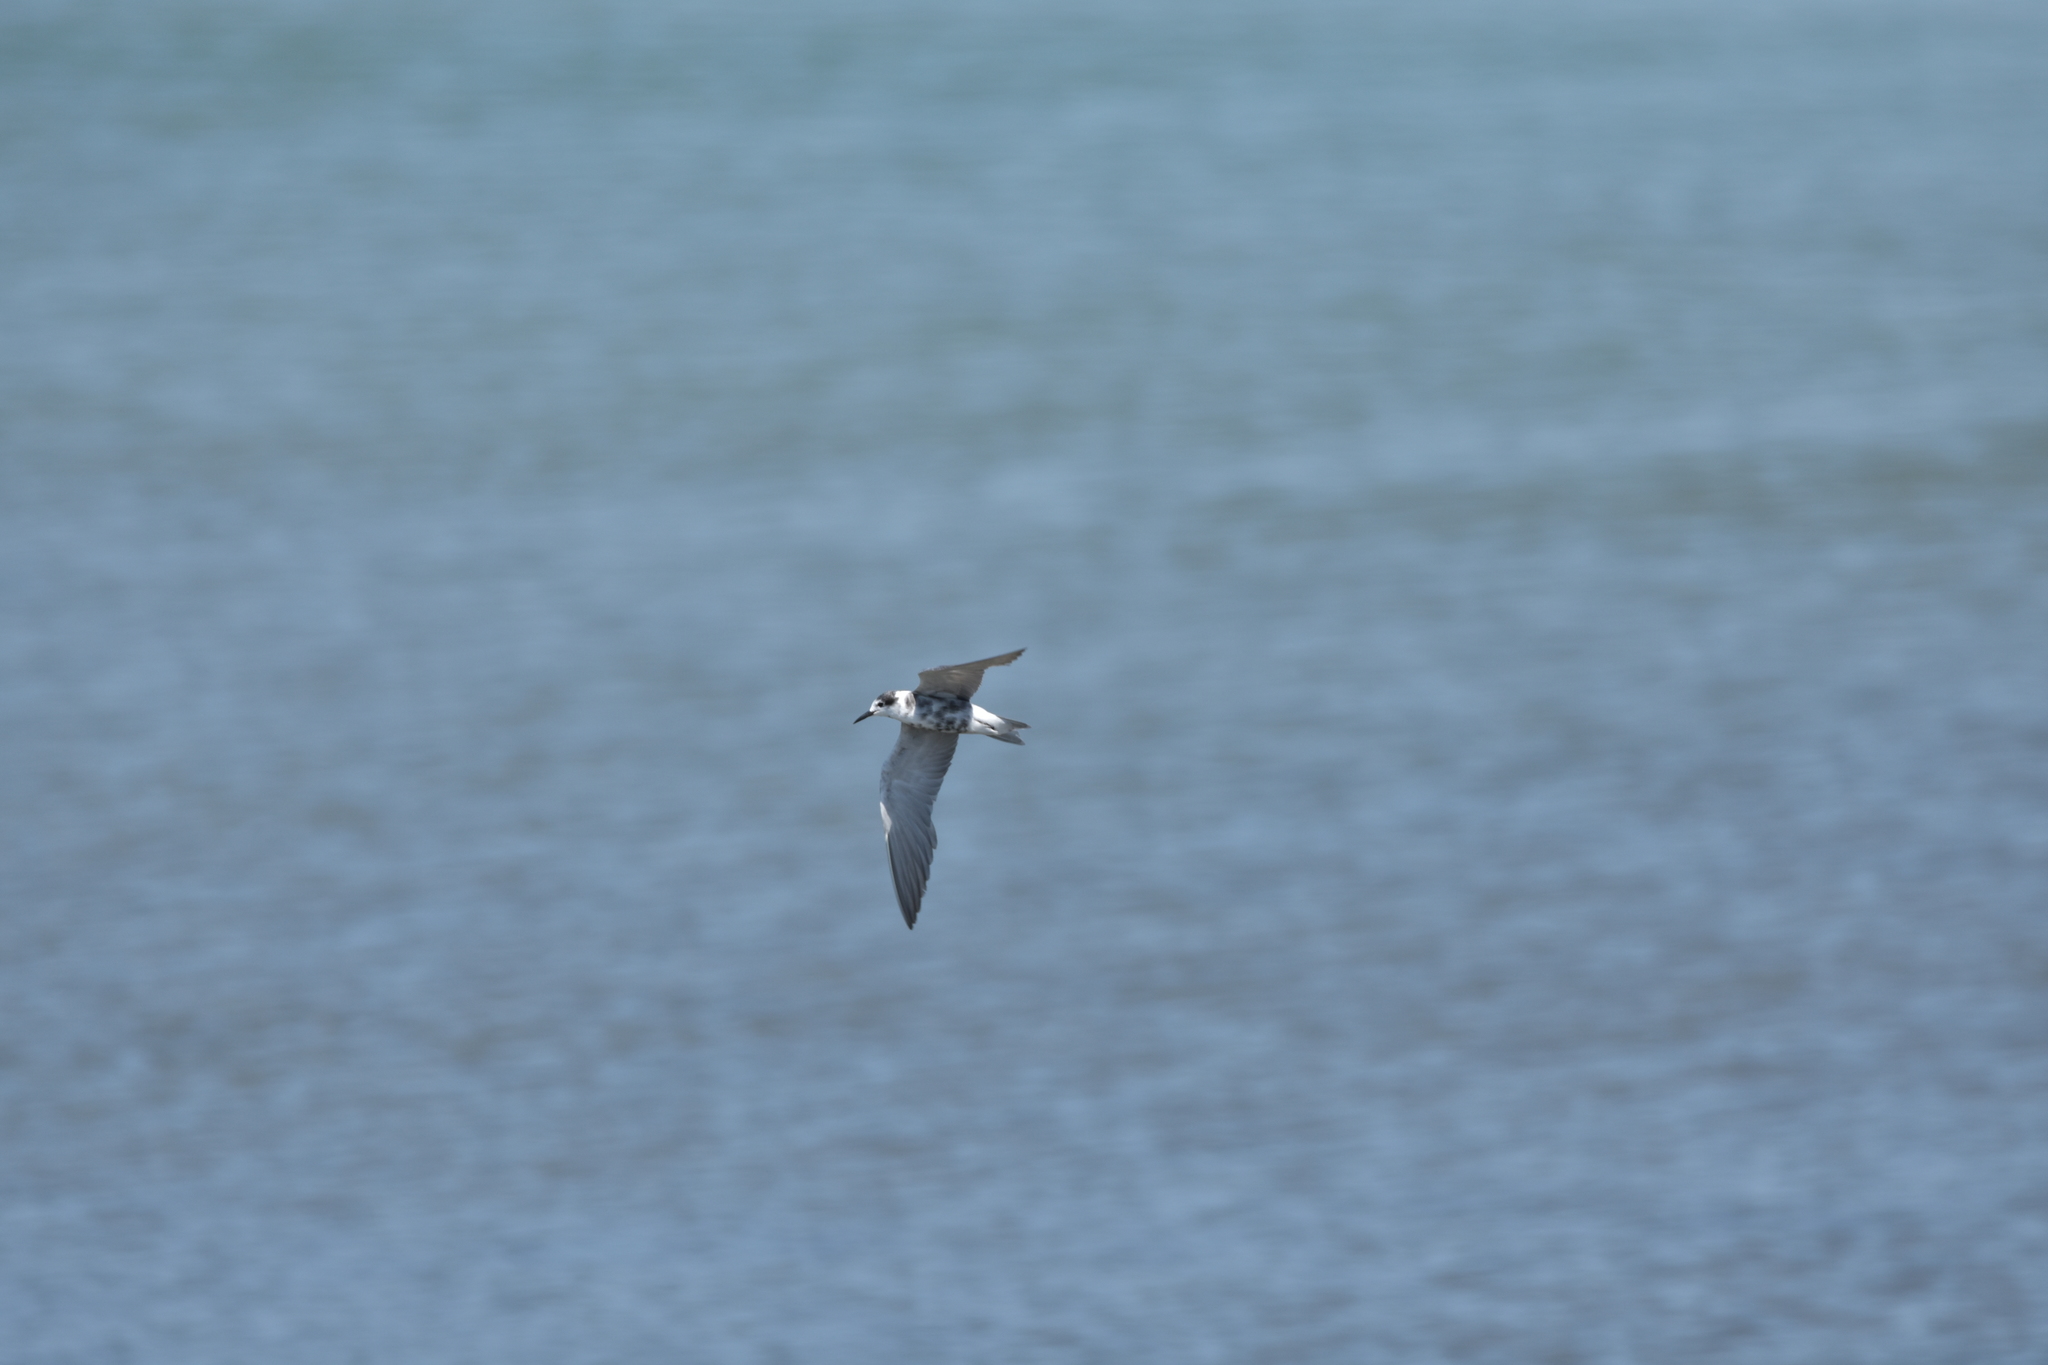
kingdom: Animalia
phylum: Chordata
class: Aves
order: Charadriiformes
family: Laridae
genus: Chlidonias
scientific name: Chlidonias niger
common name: Black tern
